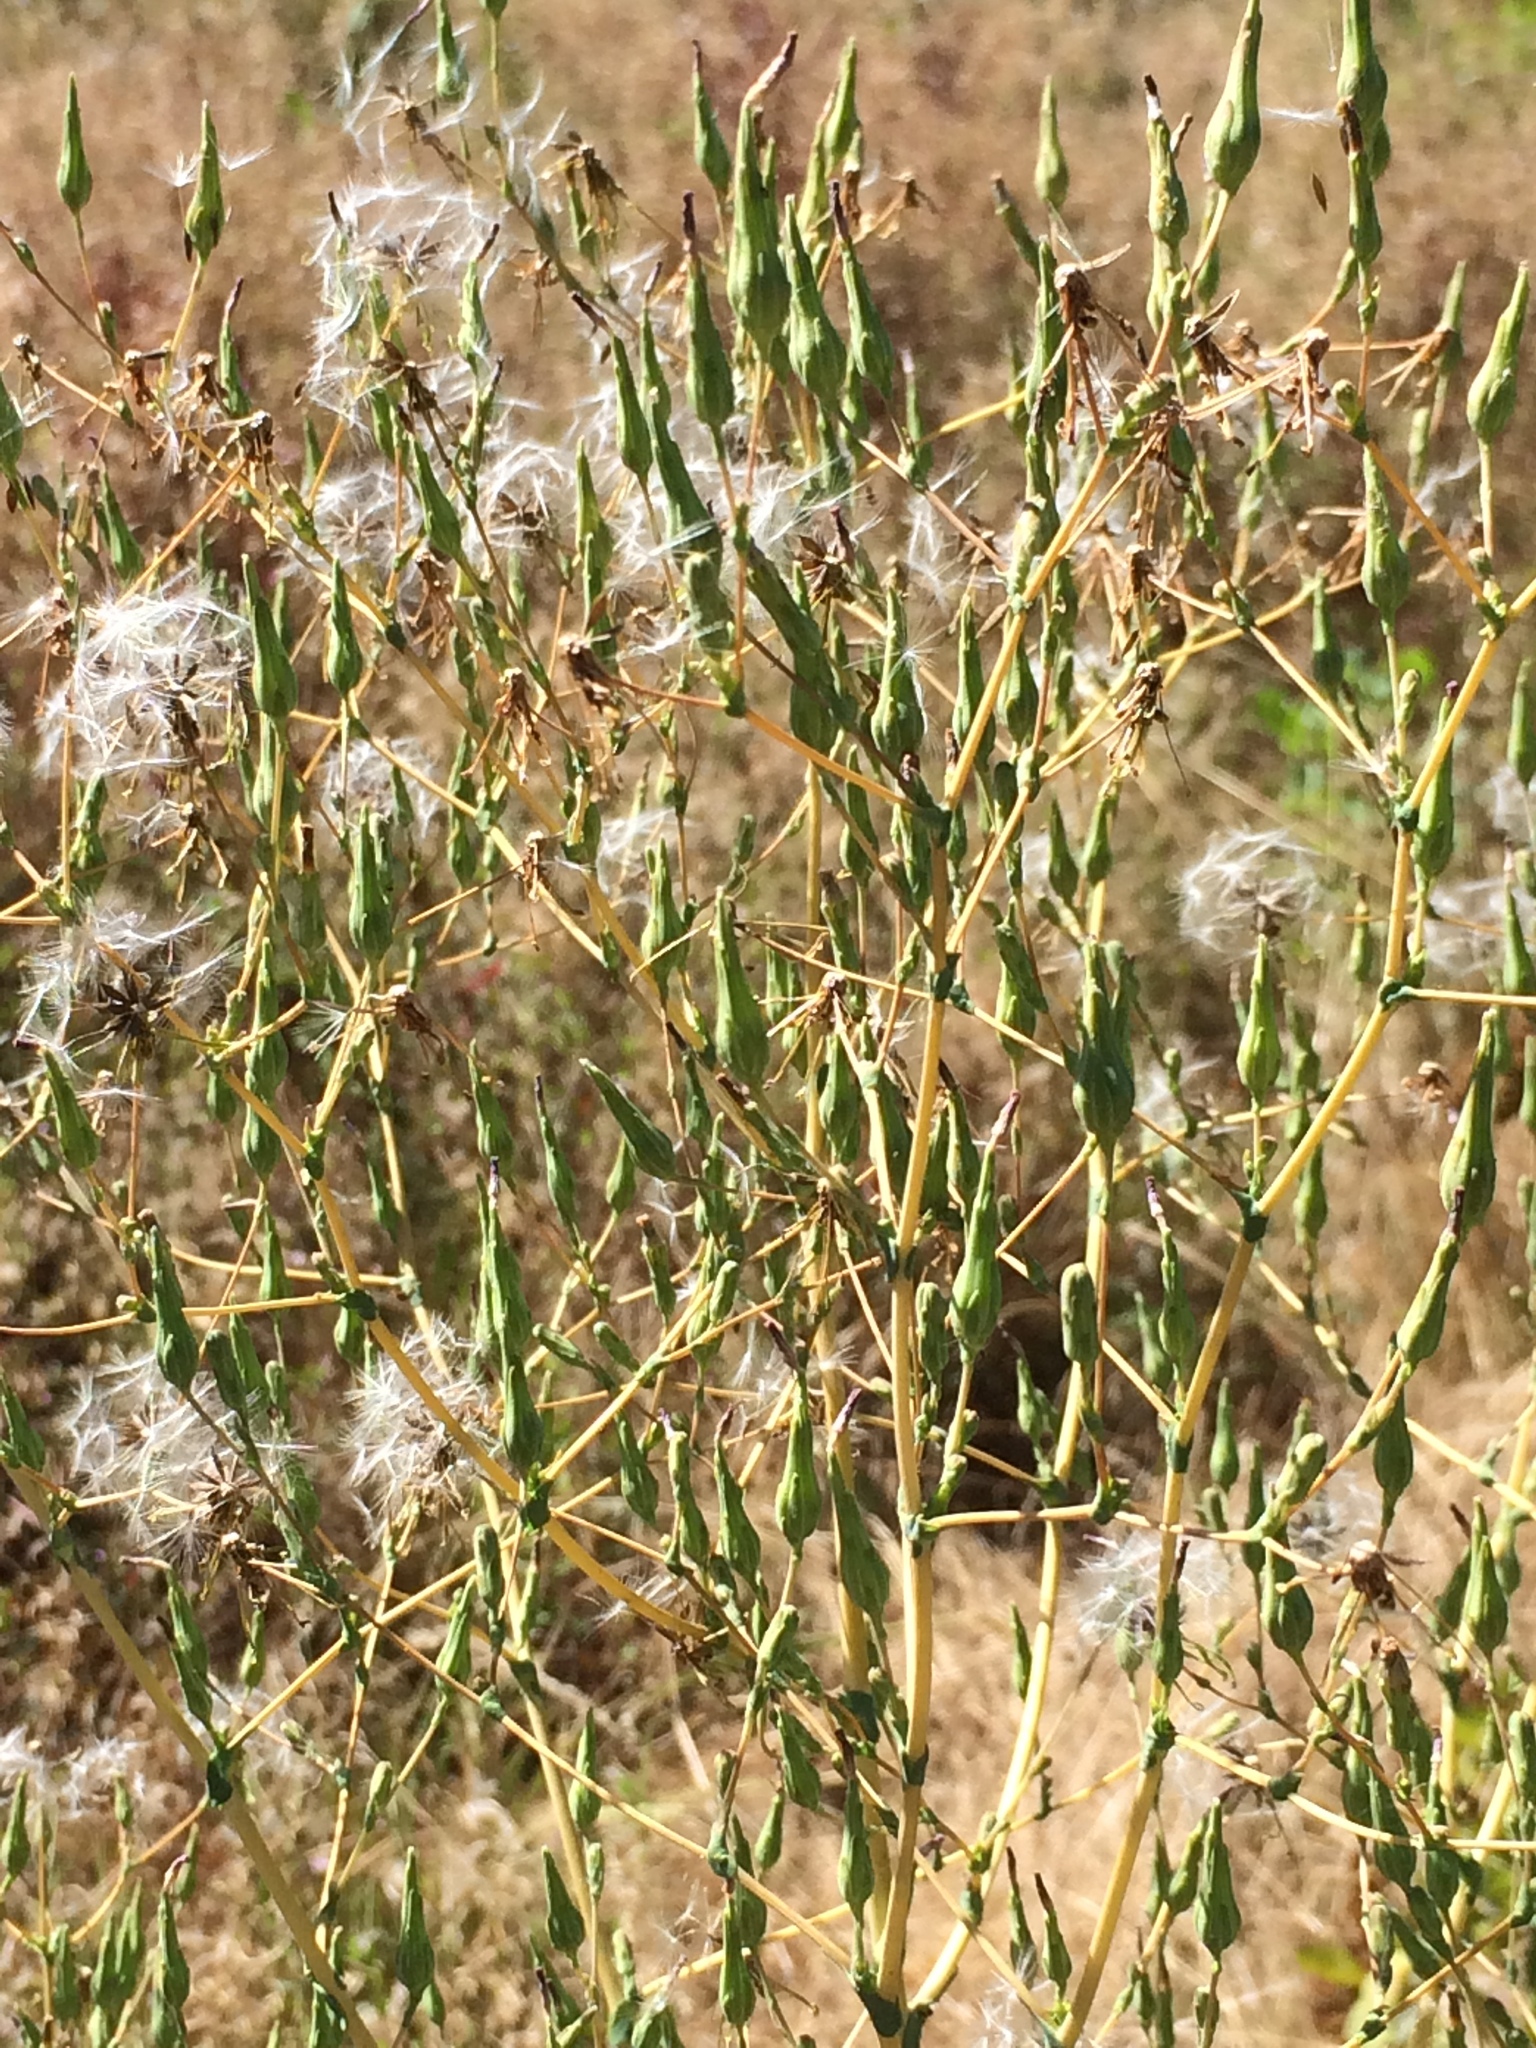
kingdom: Plantae
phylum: Tracheophyta
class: Magnoliopsida
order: Asterales
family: Asteraceae
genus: Lactuca
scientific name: Lactuca serriola
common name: Prickly lettuce
